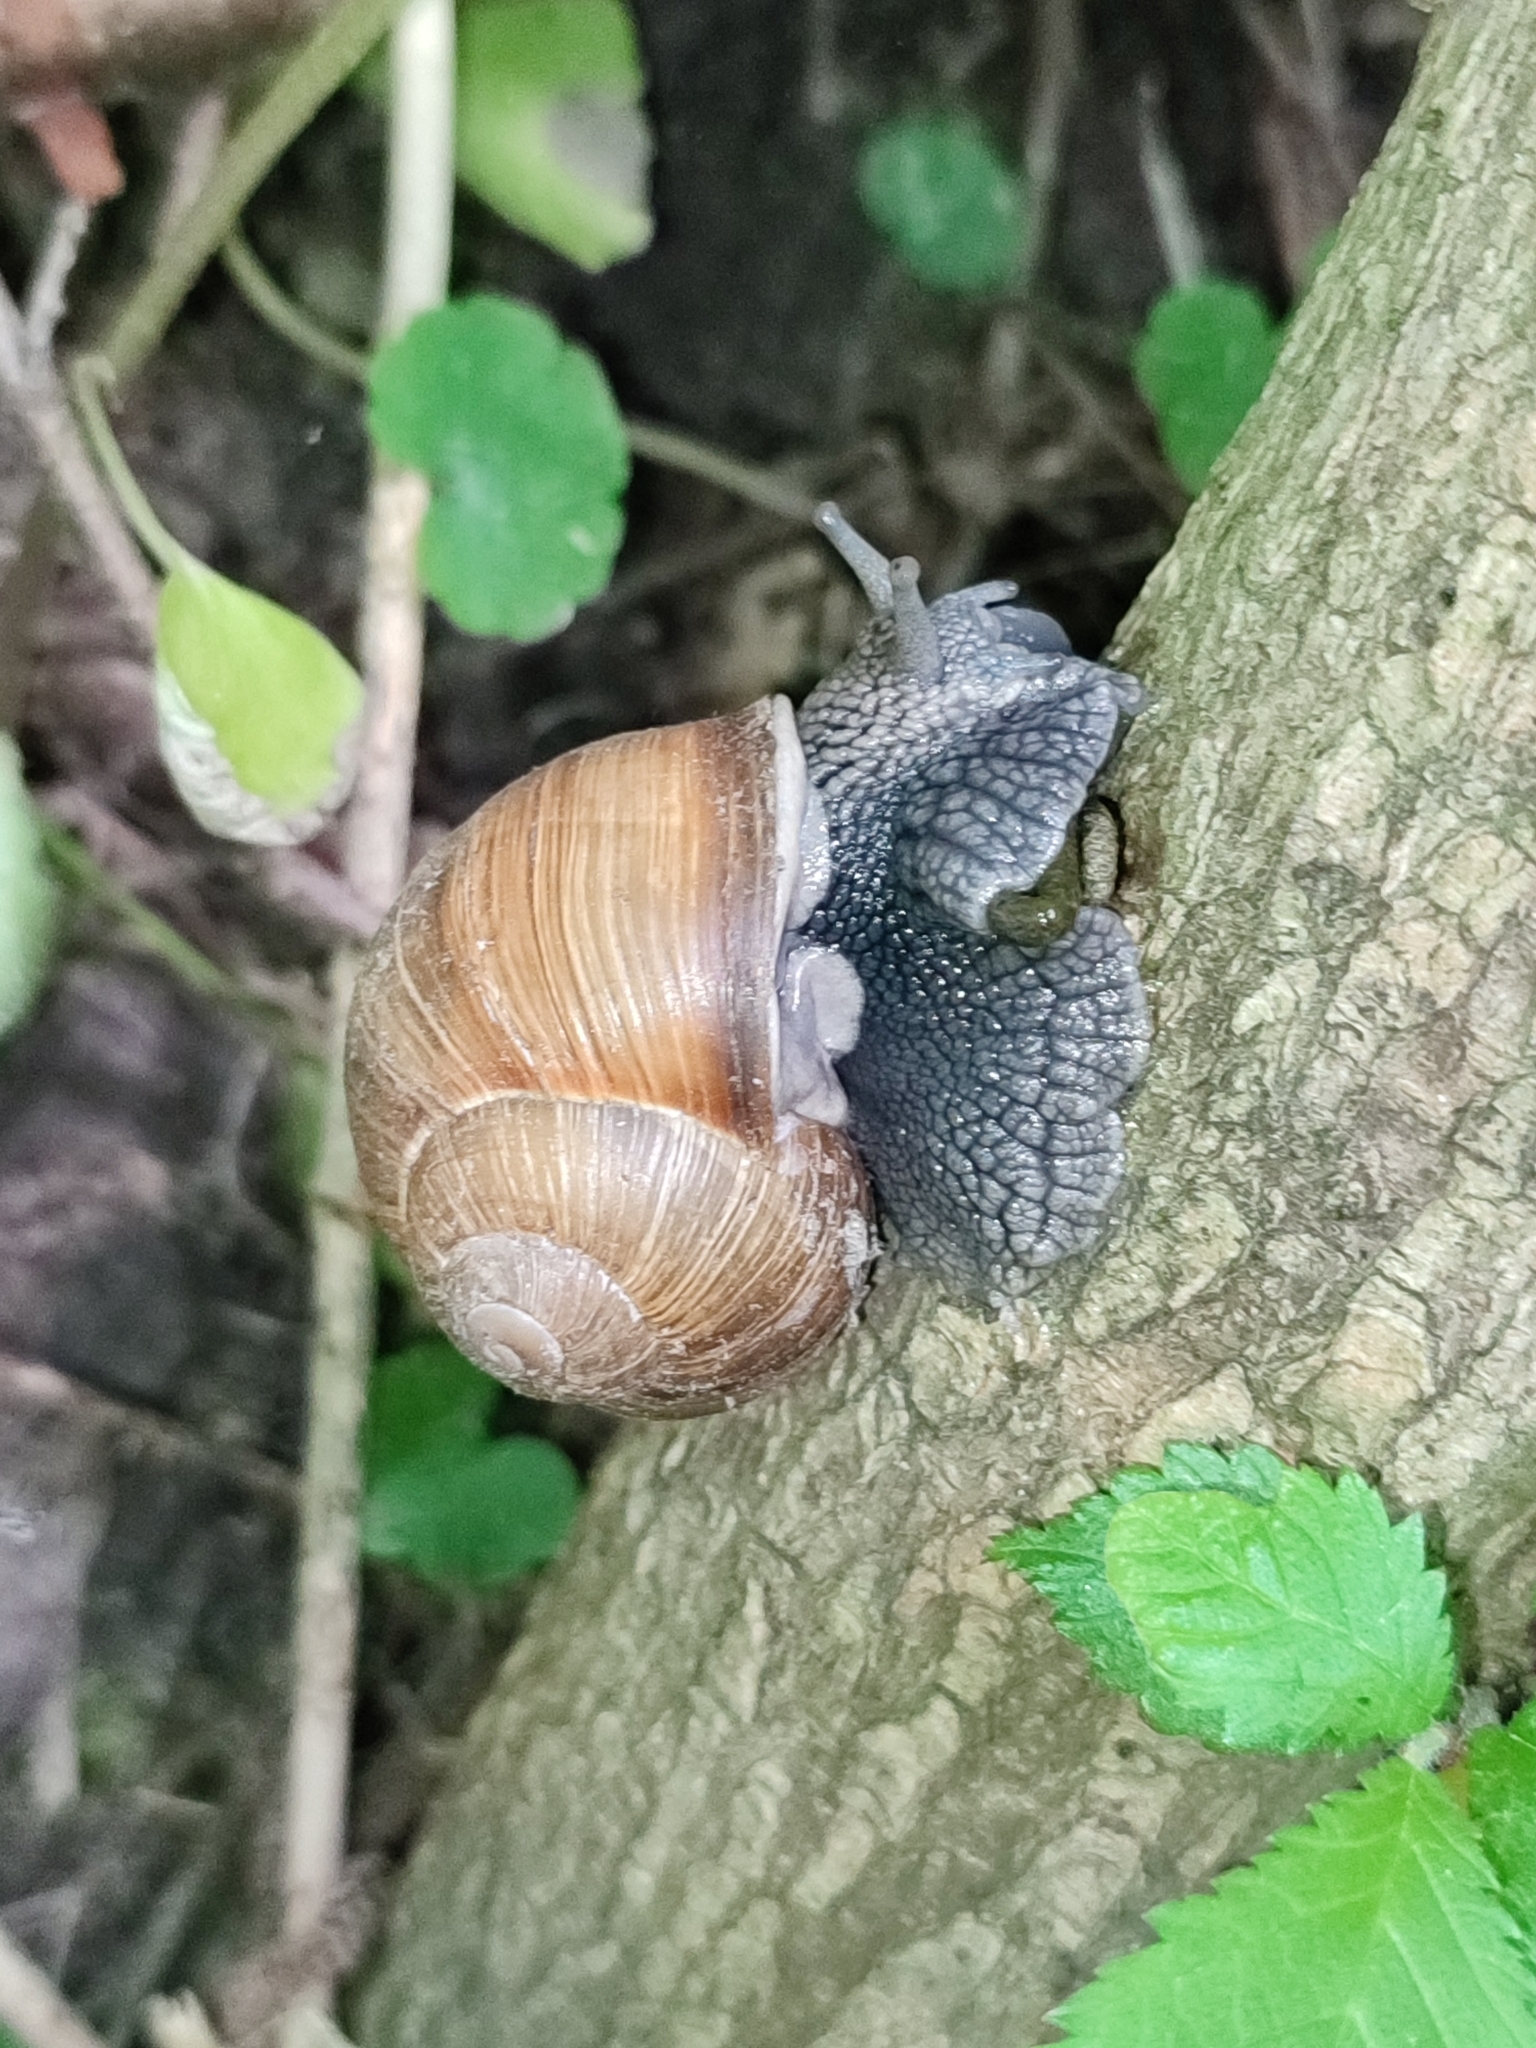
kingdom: Animalia
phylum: Mollusca
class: Gastropoda
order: Stylommatophora
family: Helicidae
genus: Helix
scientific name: Helix pomatia
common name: Roman snail
